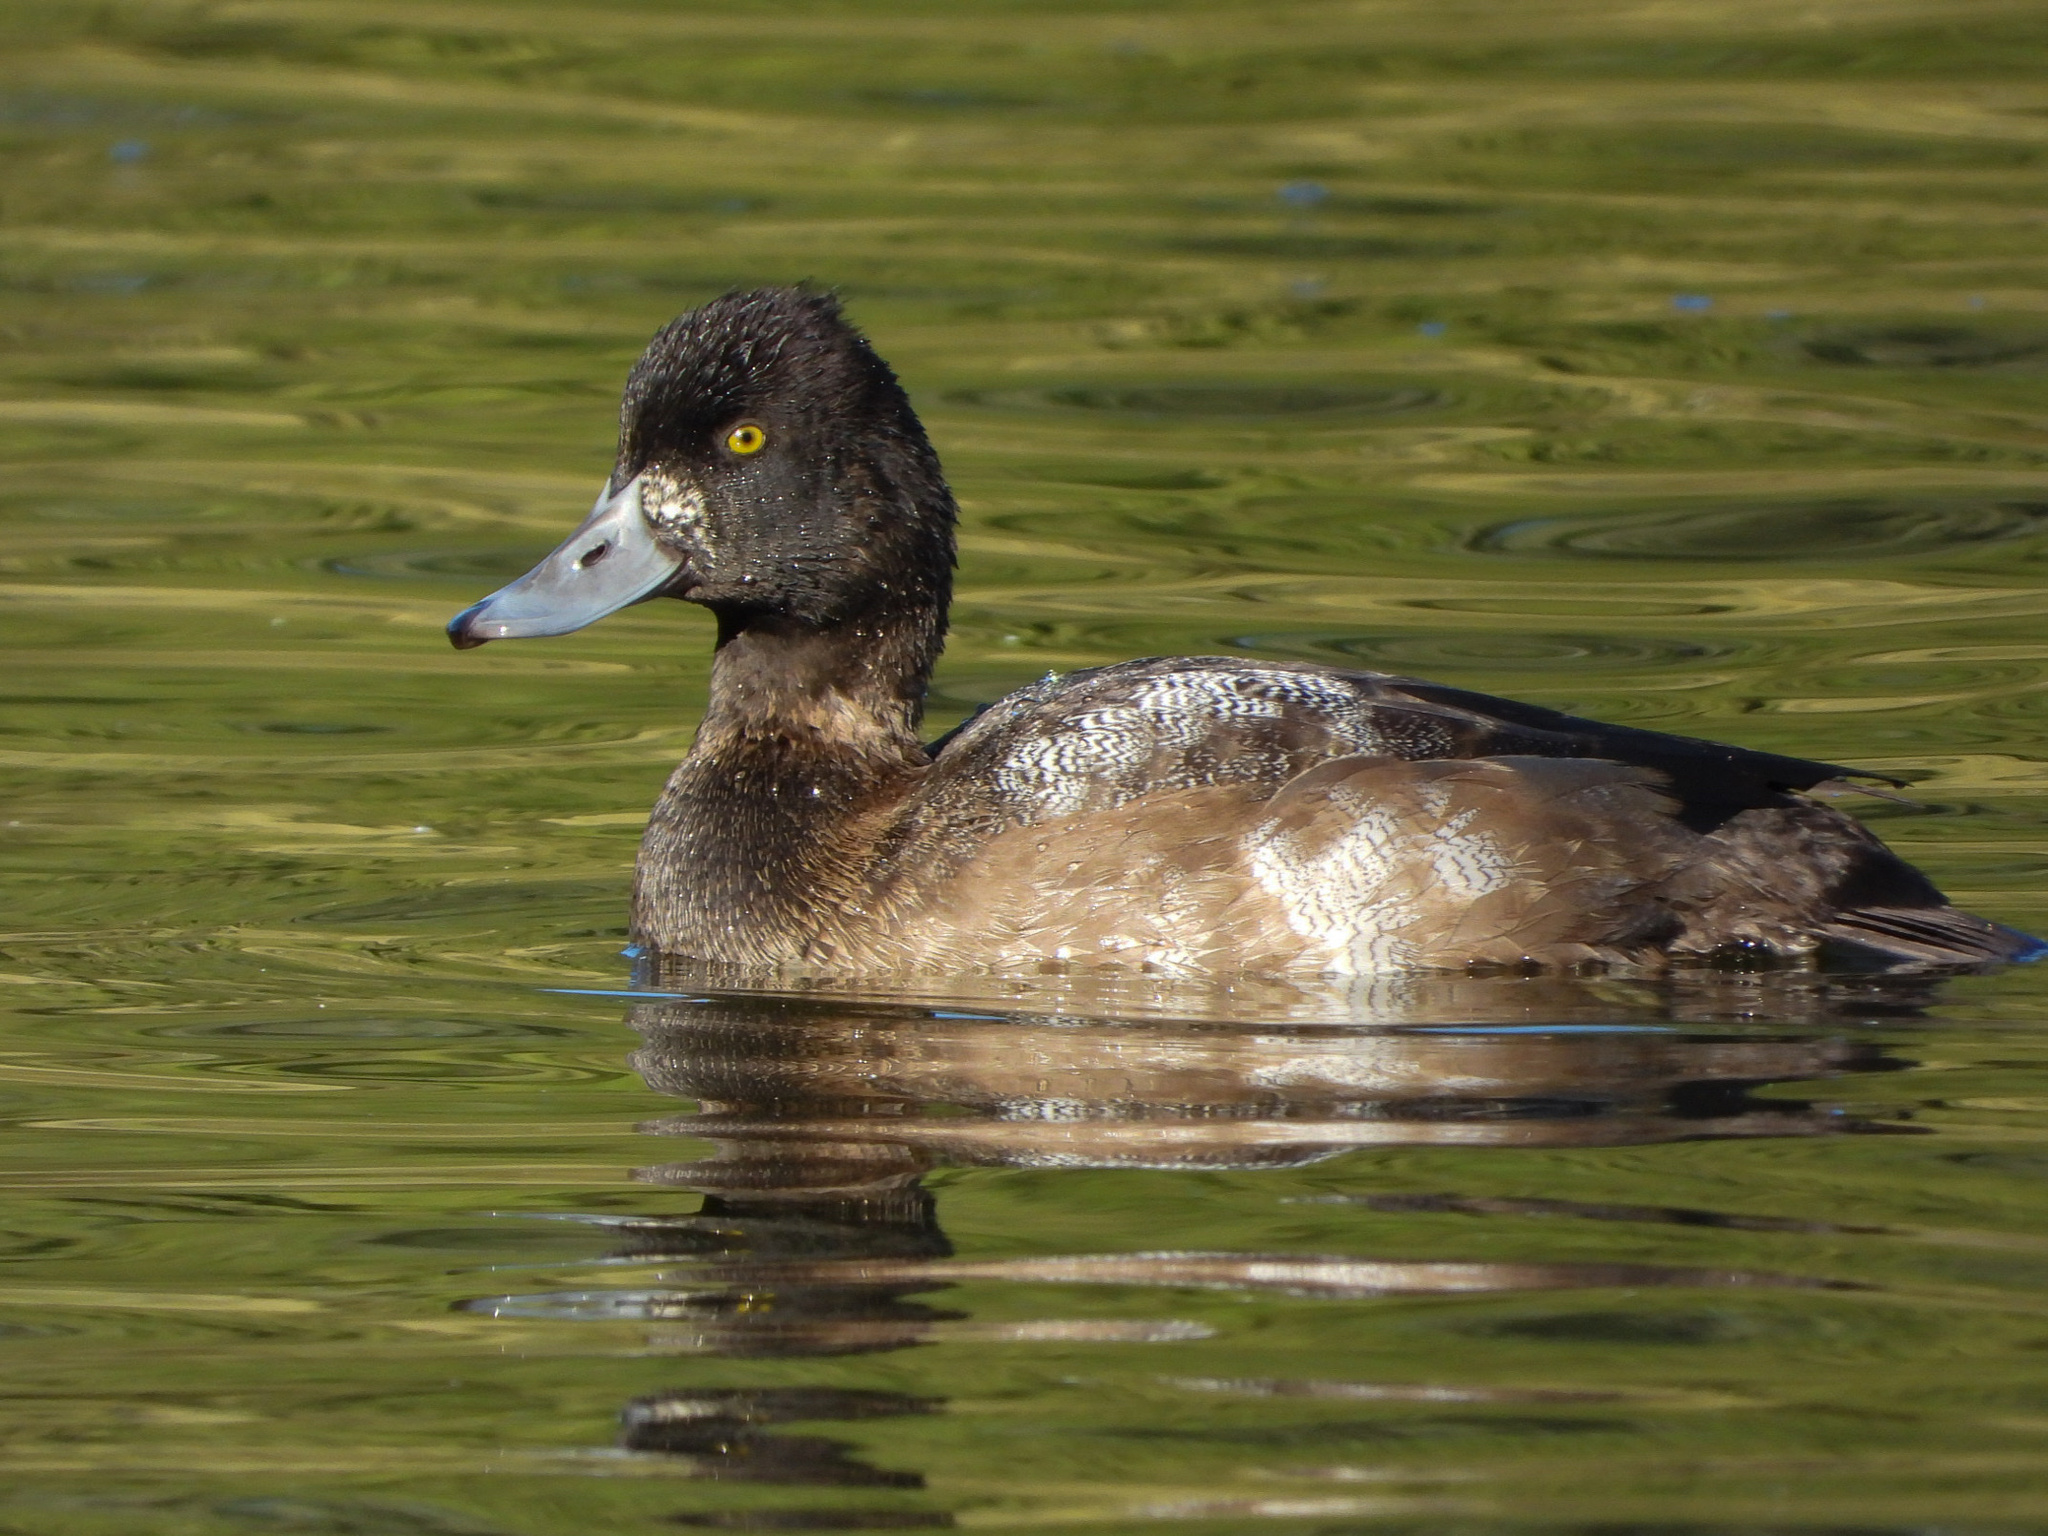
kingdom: Animalia
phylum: Chordata
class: Aves
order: Anseriformes
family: Anatidae
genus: Aythya
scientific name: Aythya affinis
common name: Lesser scaup
